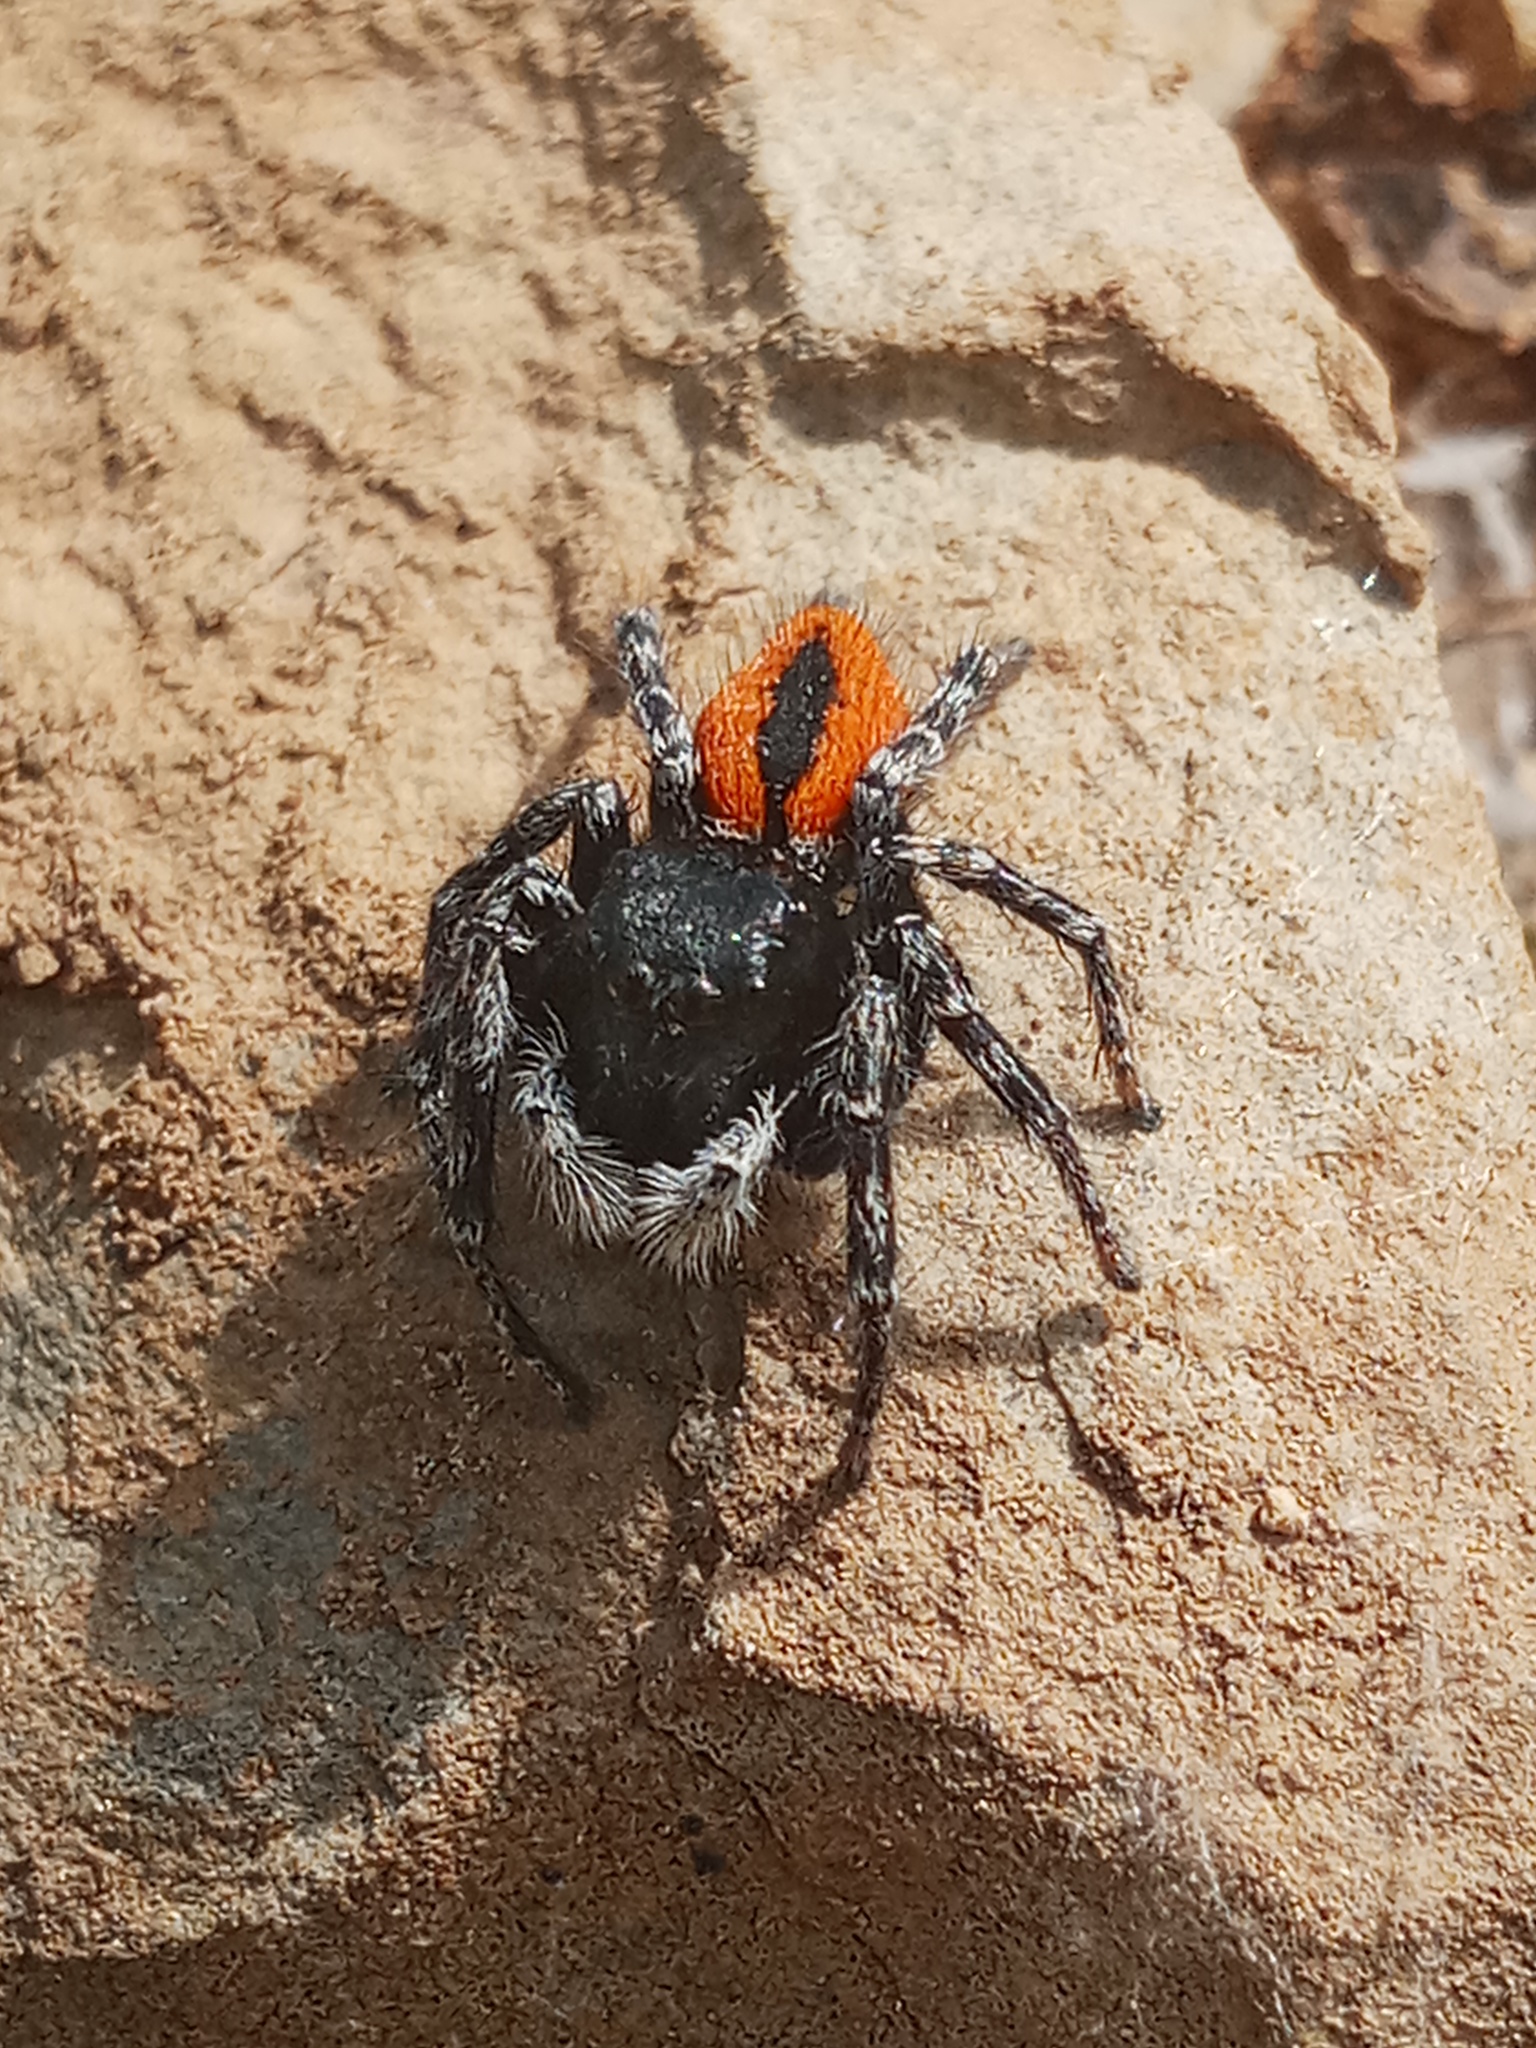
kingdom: Animalia
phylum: Arthropoda
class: Arachnida
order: Araneae
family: Salticidae
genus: Philaeus
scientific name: Philaeus chrysops
